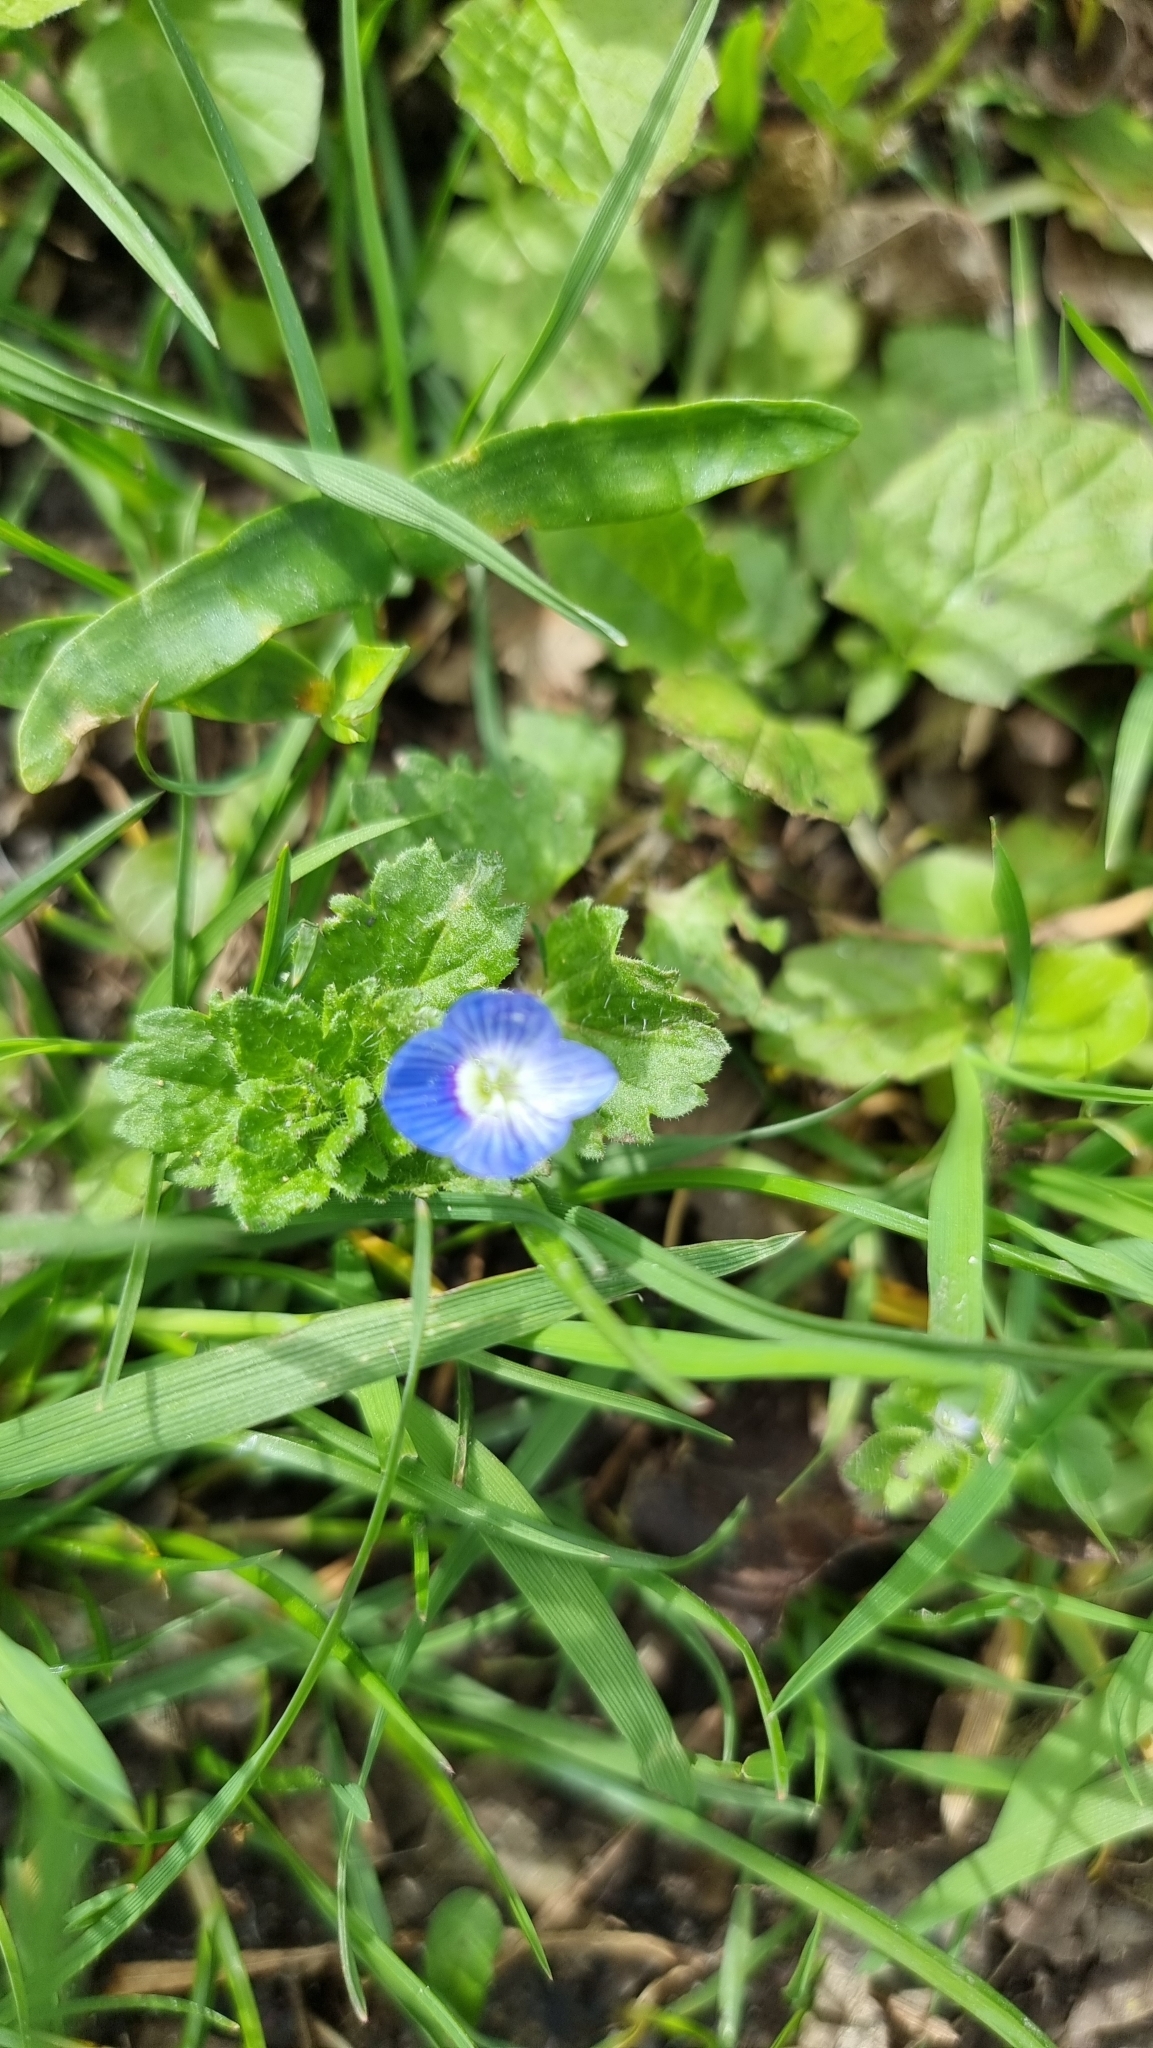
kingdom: Plantae
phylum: Tracheophyta
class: Magnoliopsida
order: Lamiales
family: Plantaginaceae
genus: Veronica
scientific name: Veronica persica
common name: Common field-speedwell
